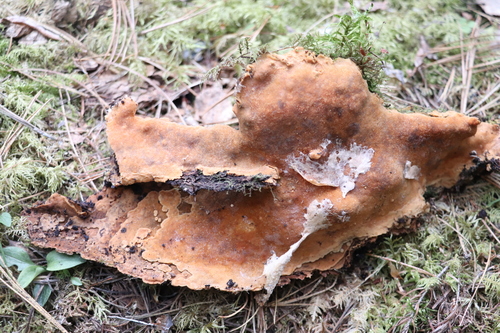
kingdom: Fungi
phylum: Basidiomycota
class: Agaricomycetes
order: Polyporales
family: Meripilaceae
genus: Rigidoporus
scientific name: Rigidoporus crocatus
